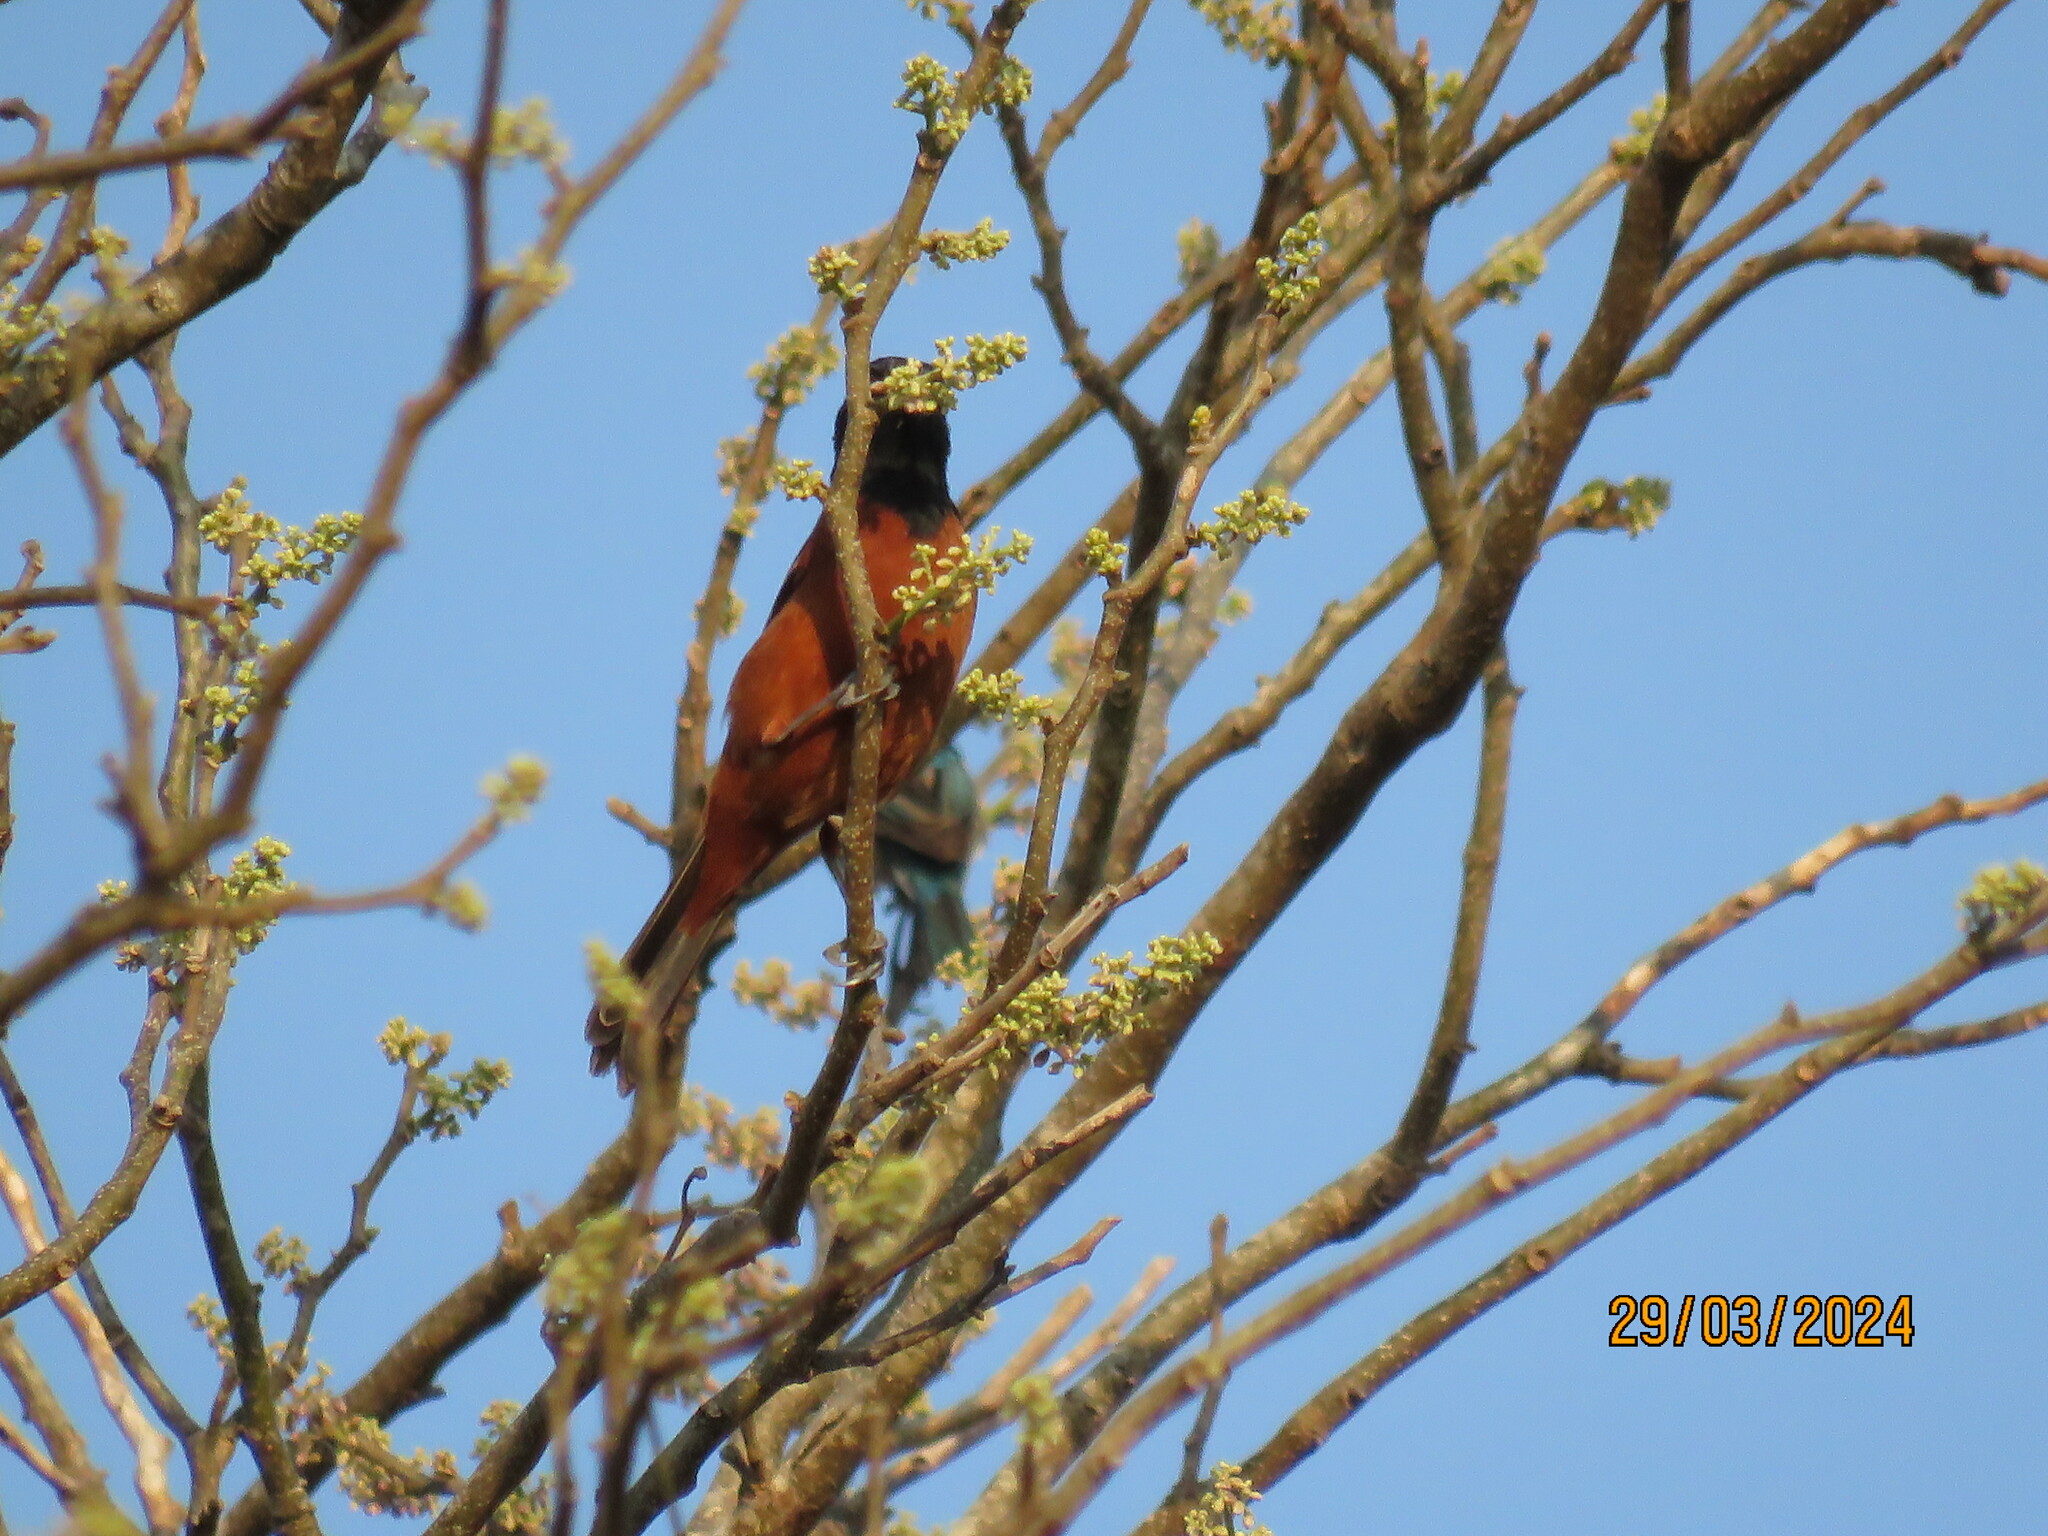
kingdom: Animalia
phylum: Chordata
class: Aves
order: Passeriformes
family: Icteridae
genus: Icterus
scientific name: Icterus spurius
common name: Orchard oriole
